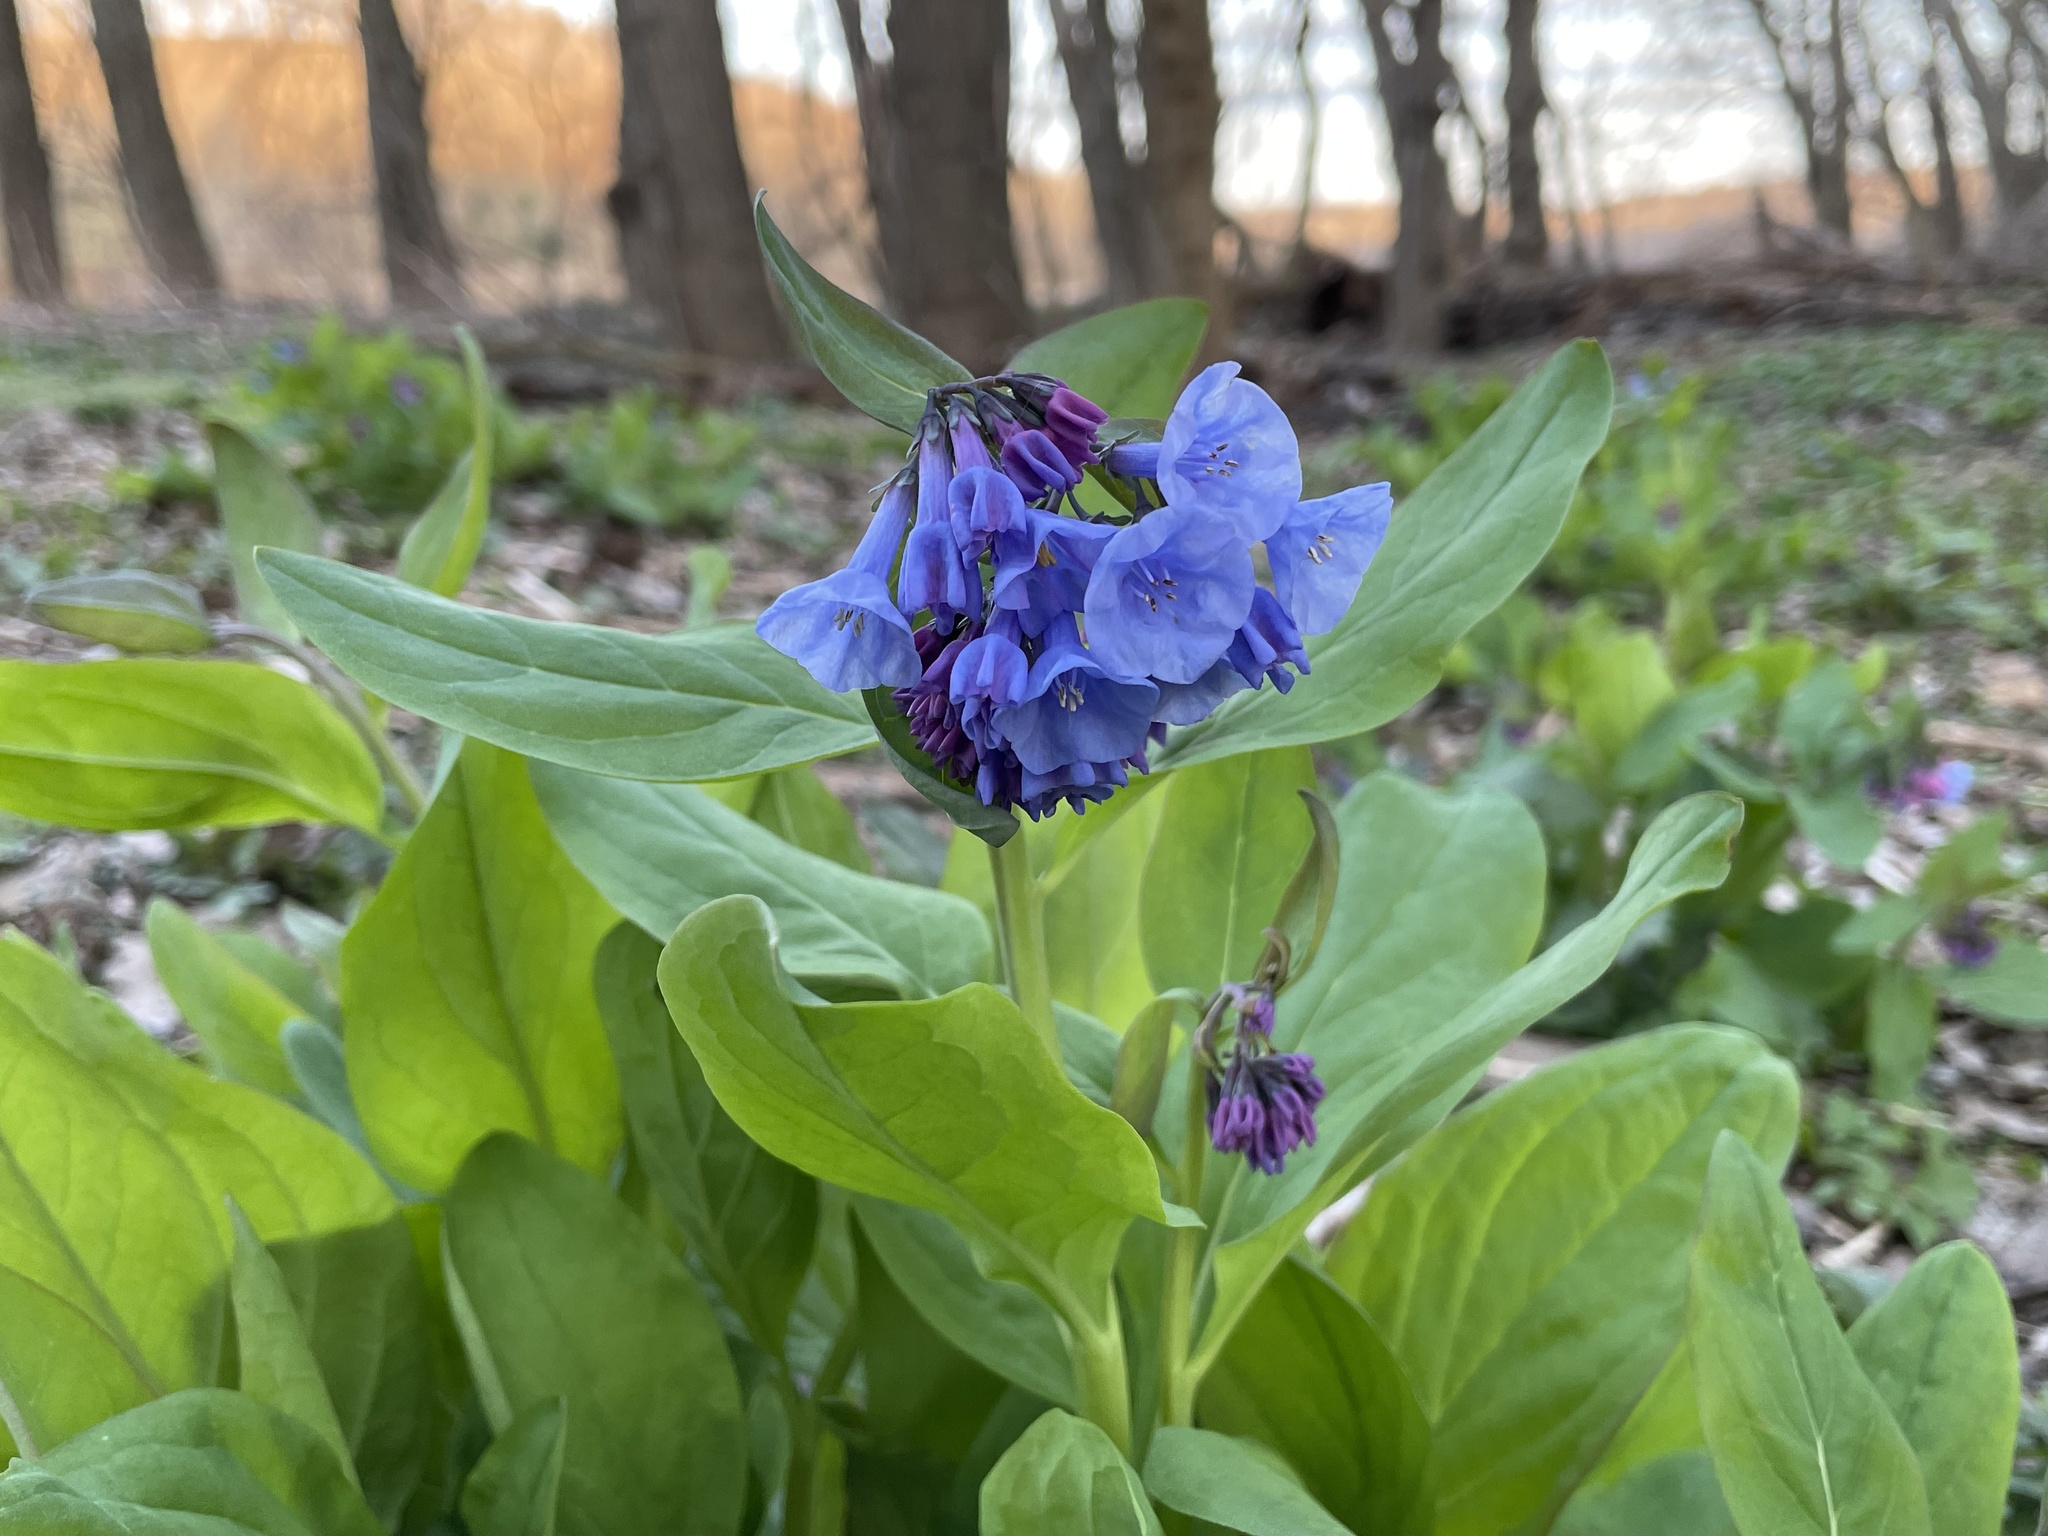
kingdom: Plantae
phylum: Tracheophyta
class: Magnoliopsida
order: Boraginales
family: Boraginaceae
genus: Mertensia
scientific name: Mertensia virginica
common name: Virginia bluebells
